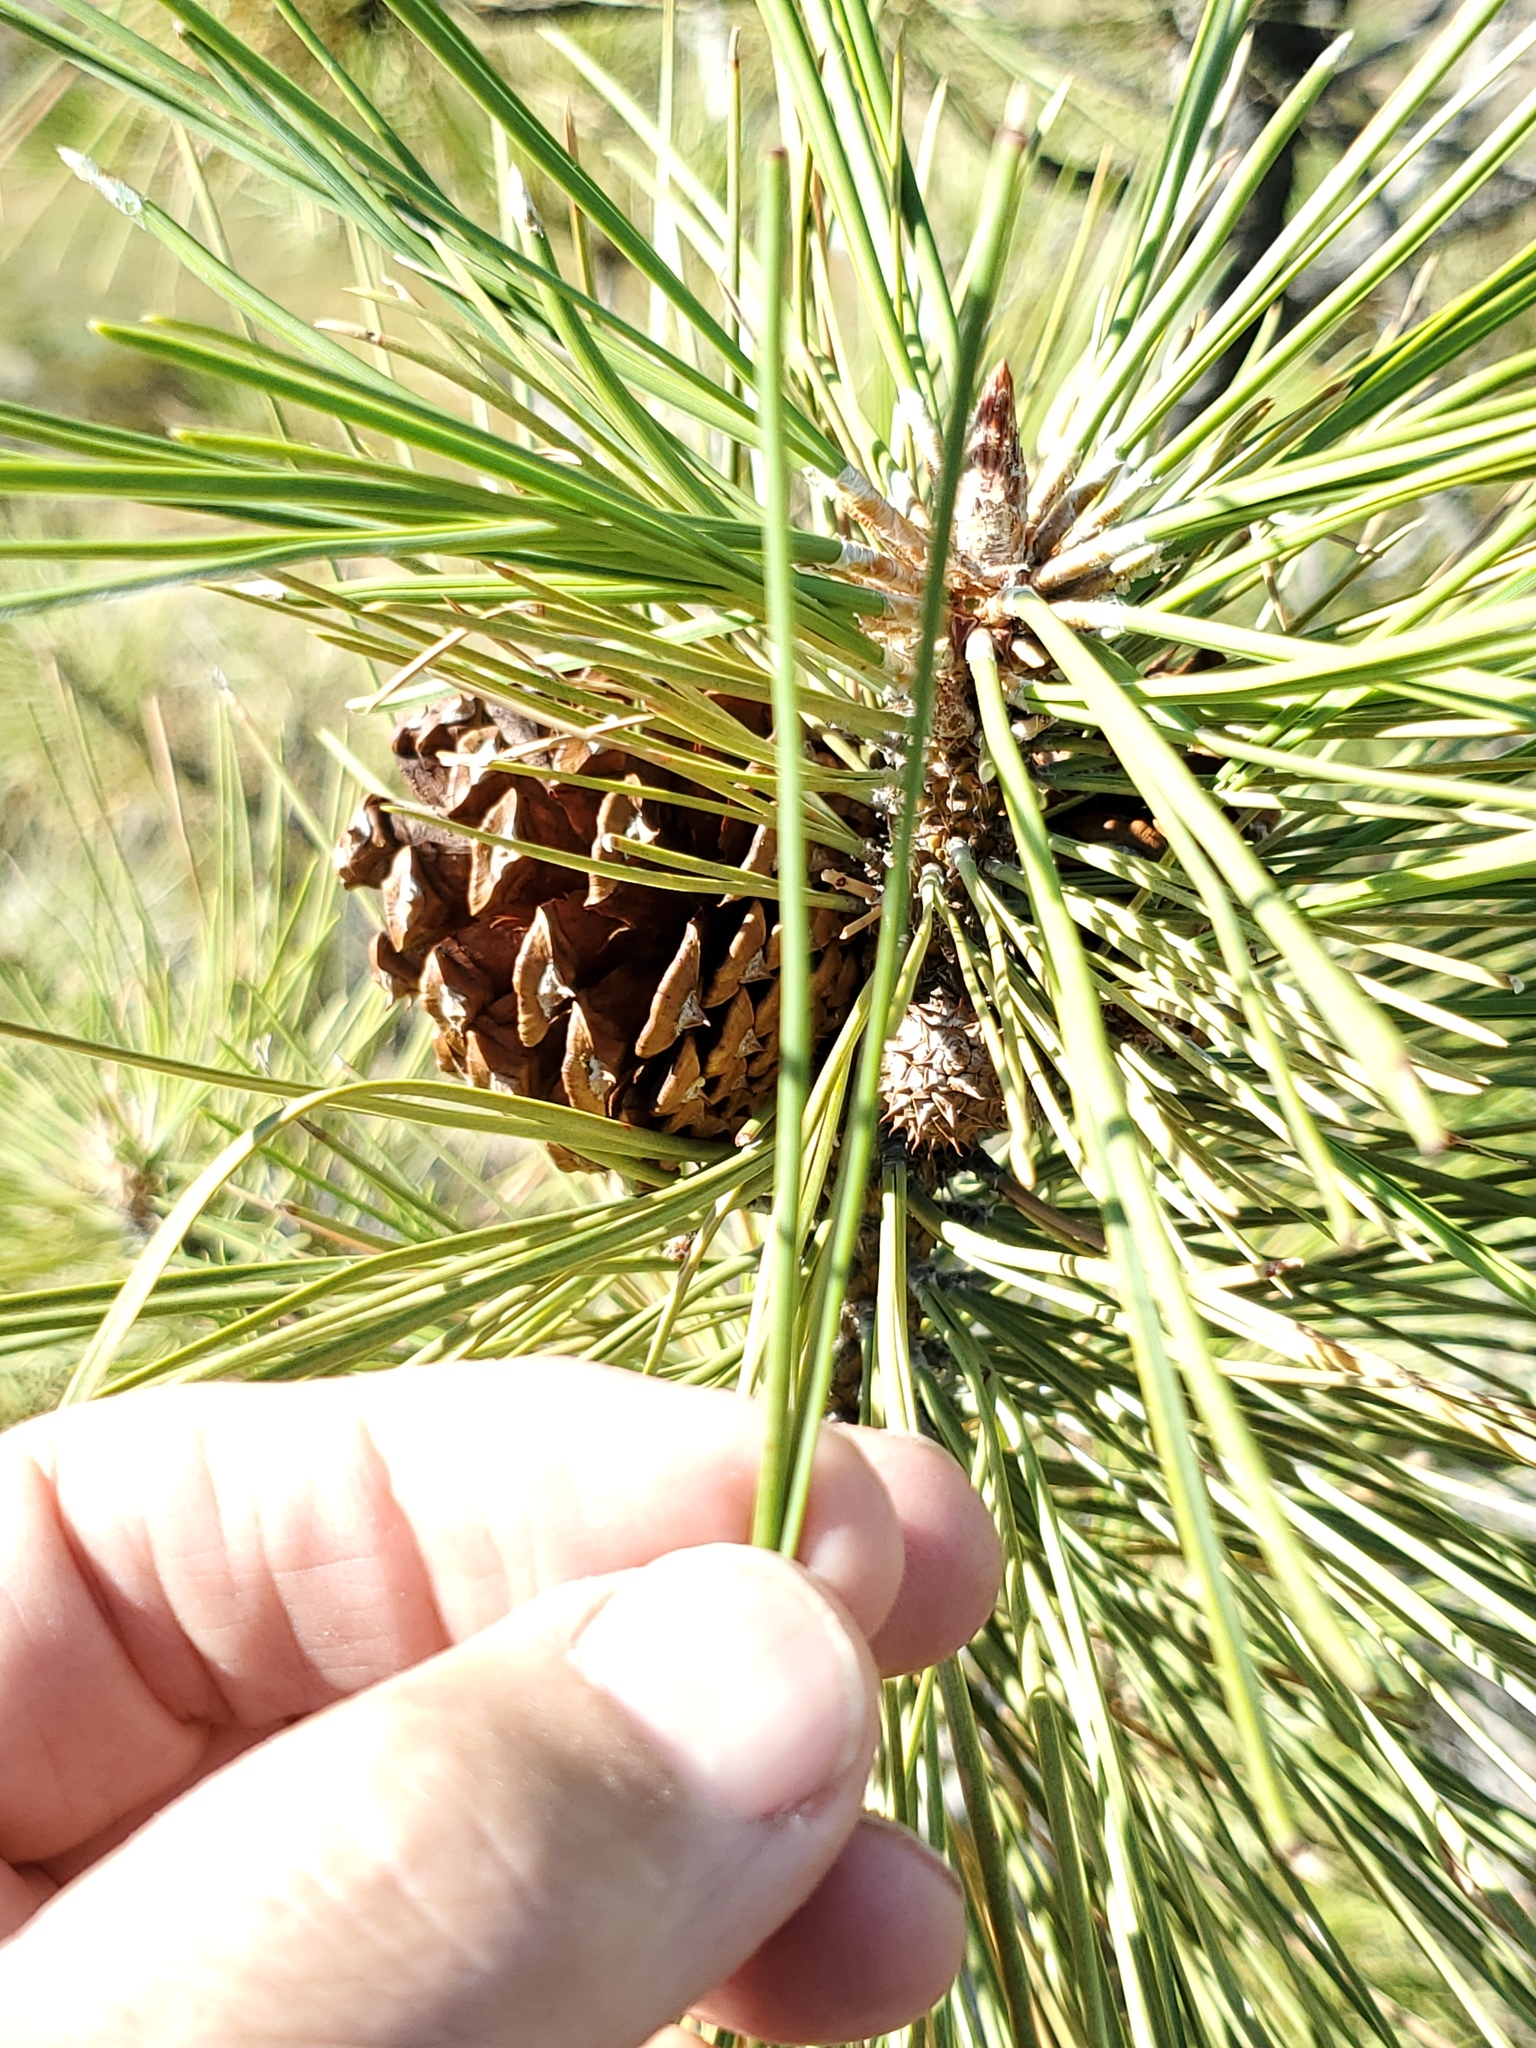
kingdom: Plantae
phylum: Tracheophyta
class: Pinopsida
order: Pinales
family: Pinaceae
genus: Pinus
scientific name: Pinus ponderosa
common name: Western yellow-pine
